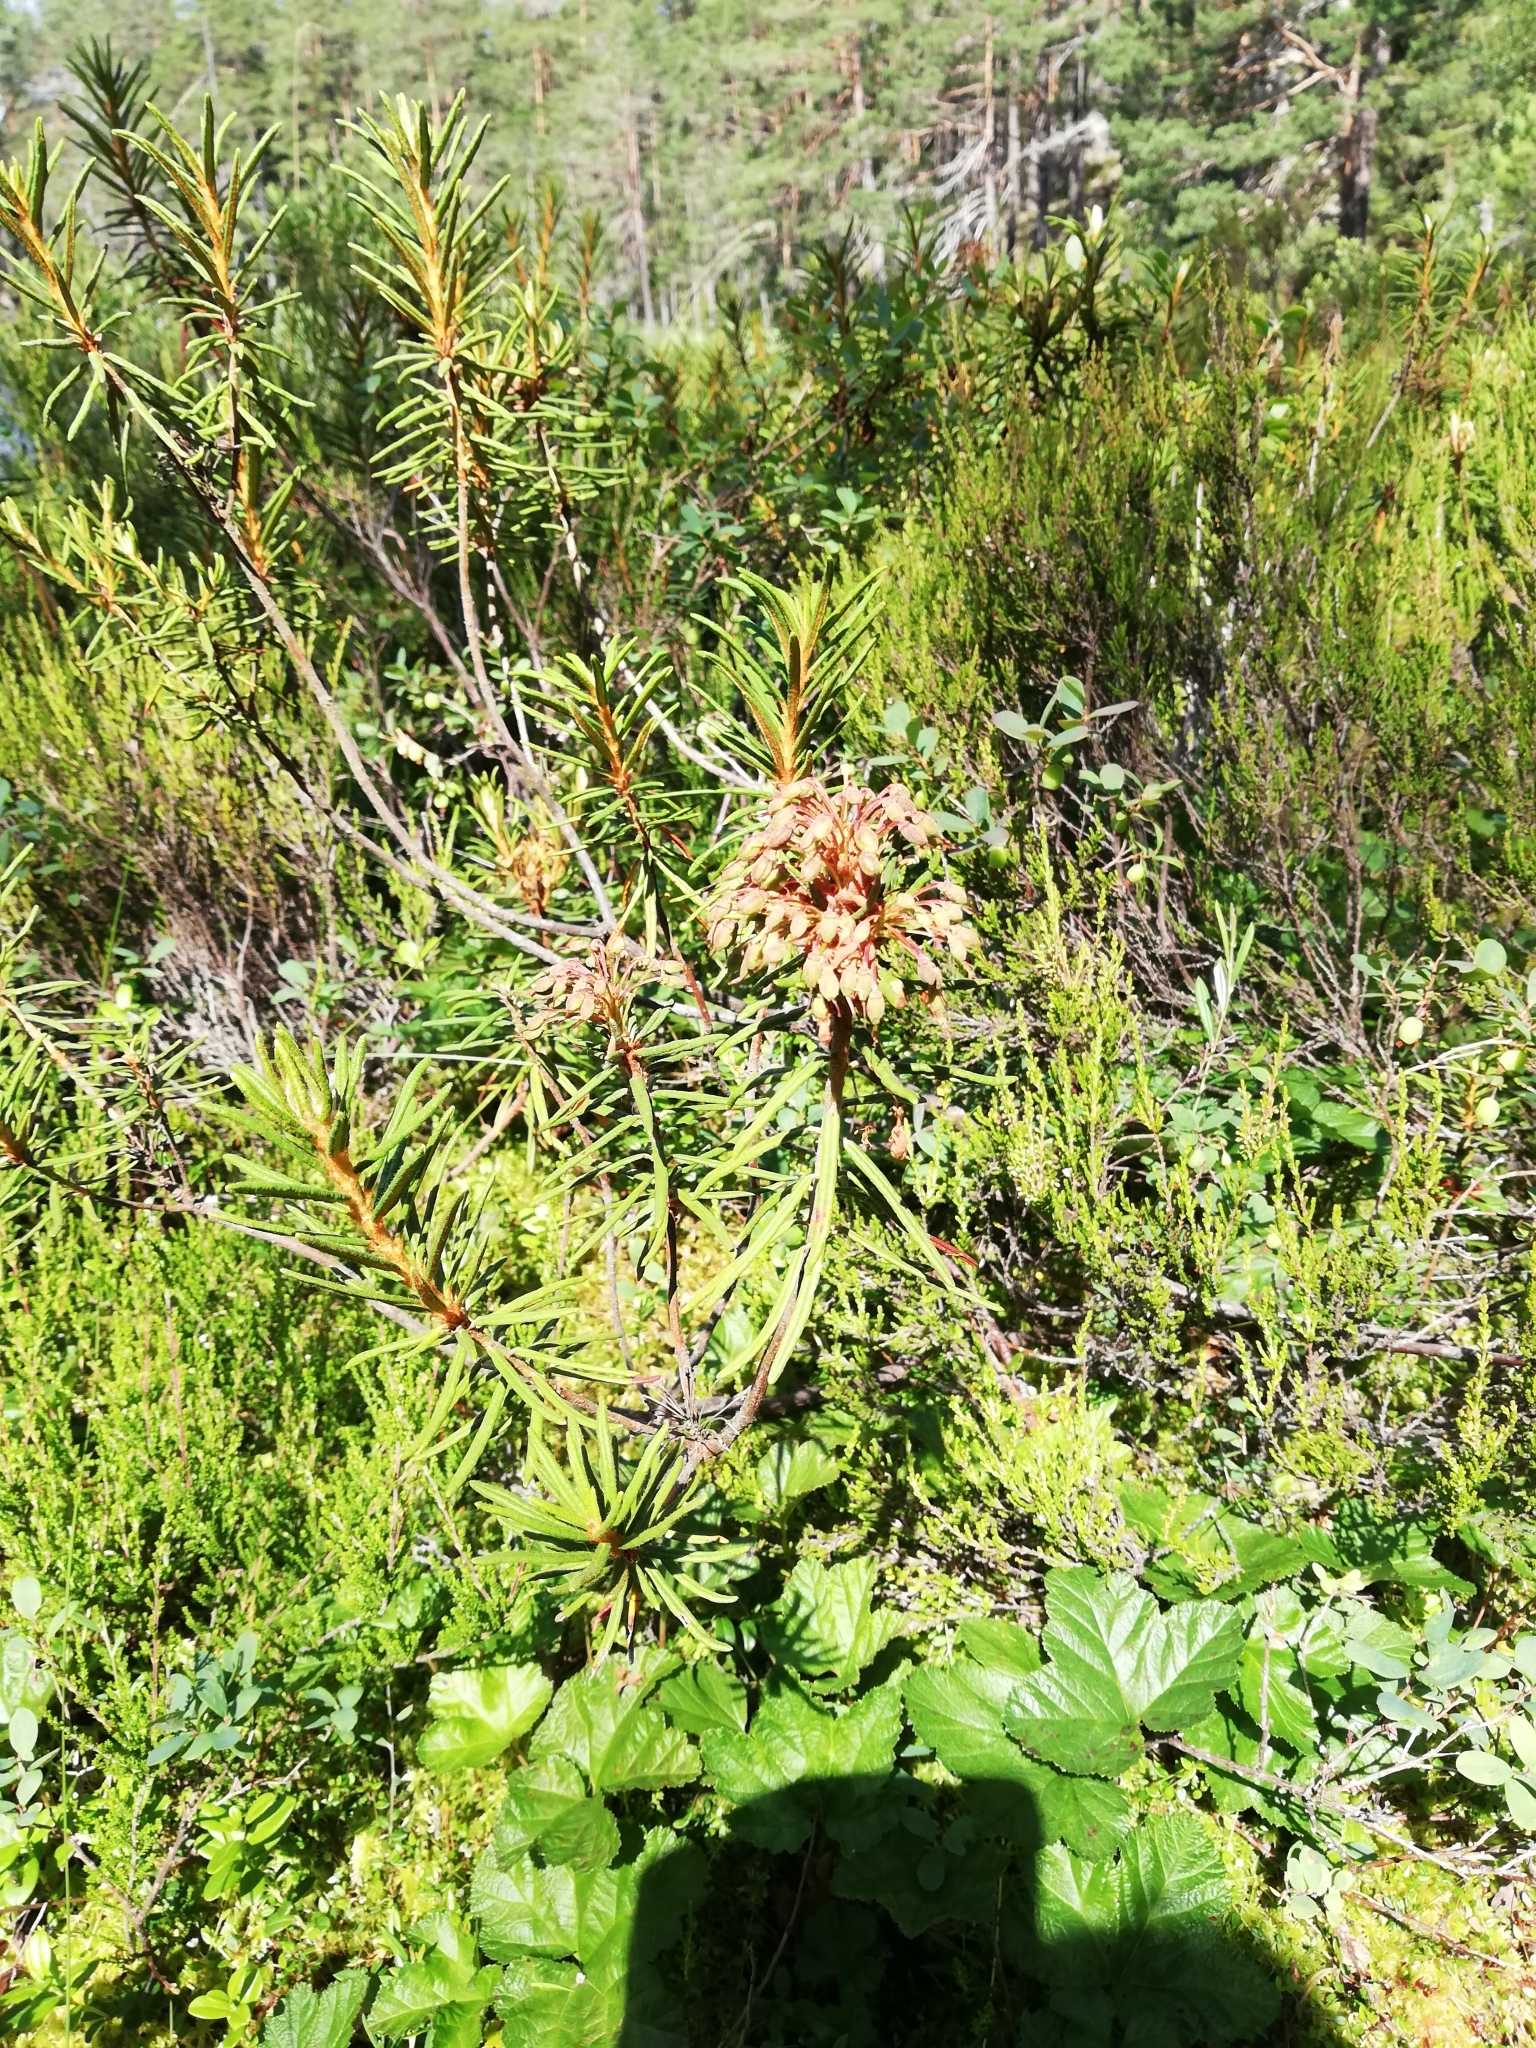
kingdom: Plantae
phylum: Tracheophyta
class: Magnoliopsida
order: Ericales
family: Ericaceae
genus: Rhododendron
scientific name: Rhododendron tomentosum
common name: Marsh labrador tea
